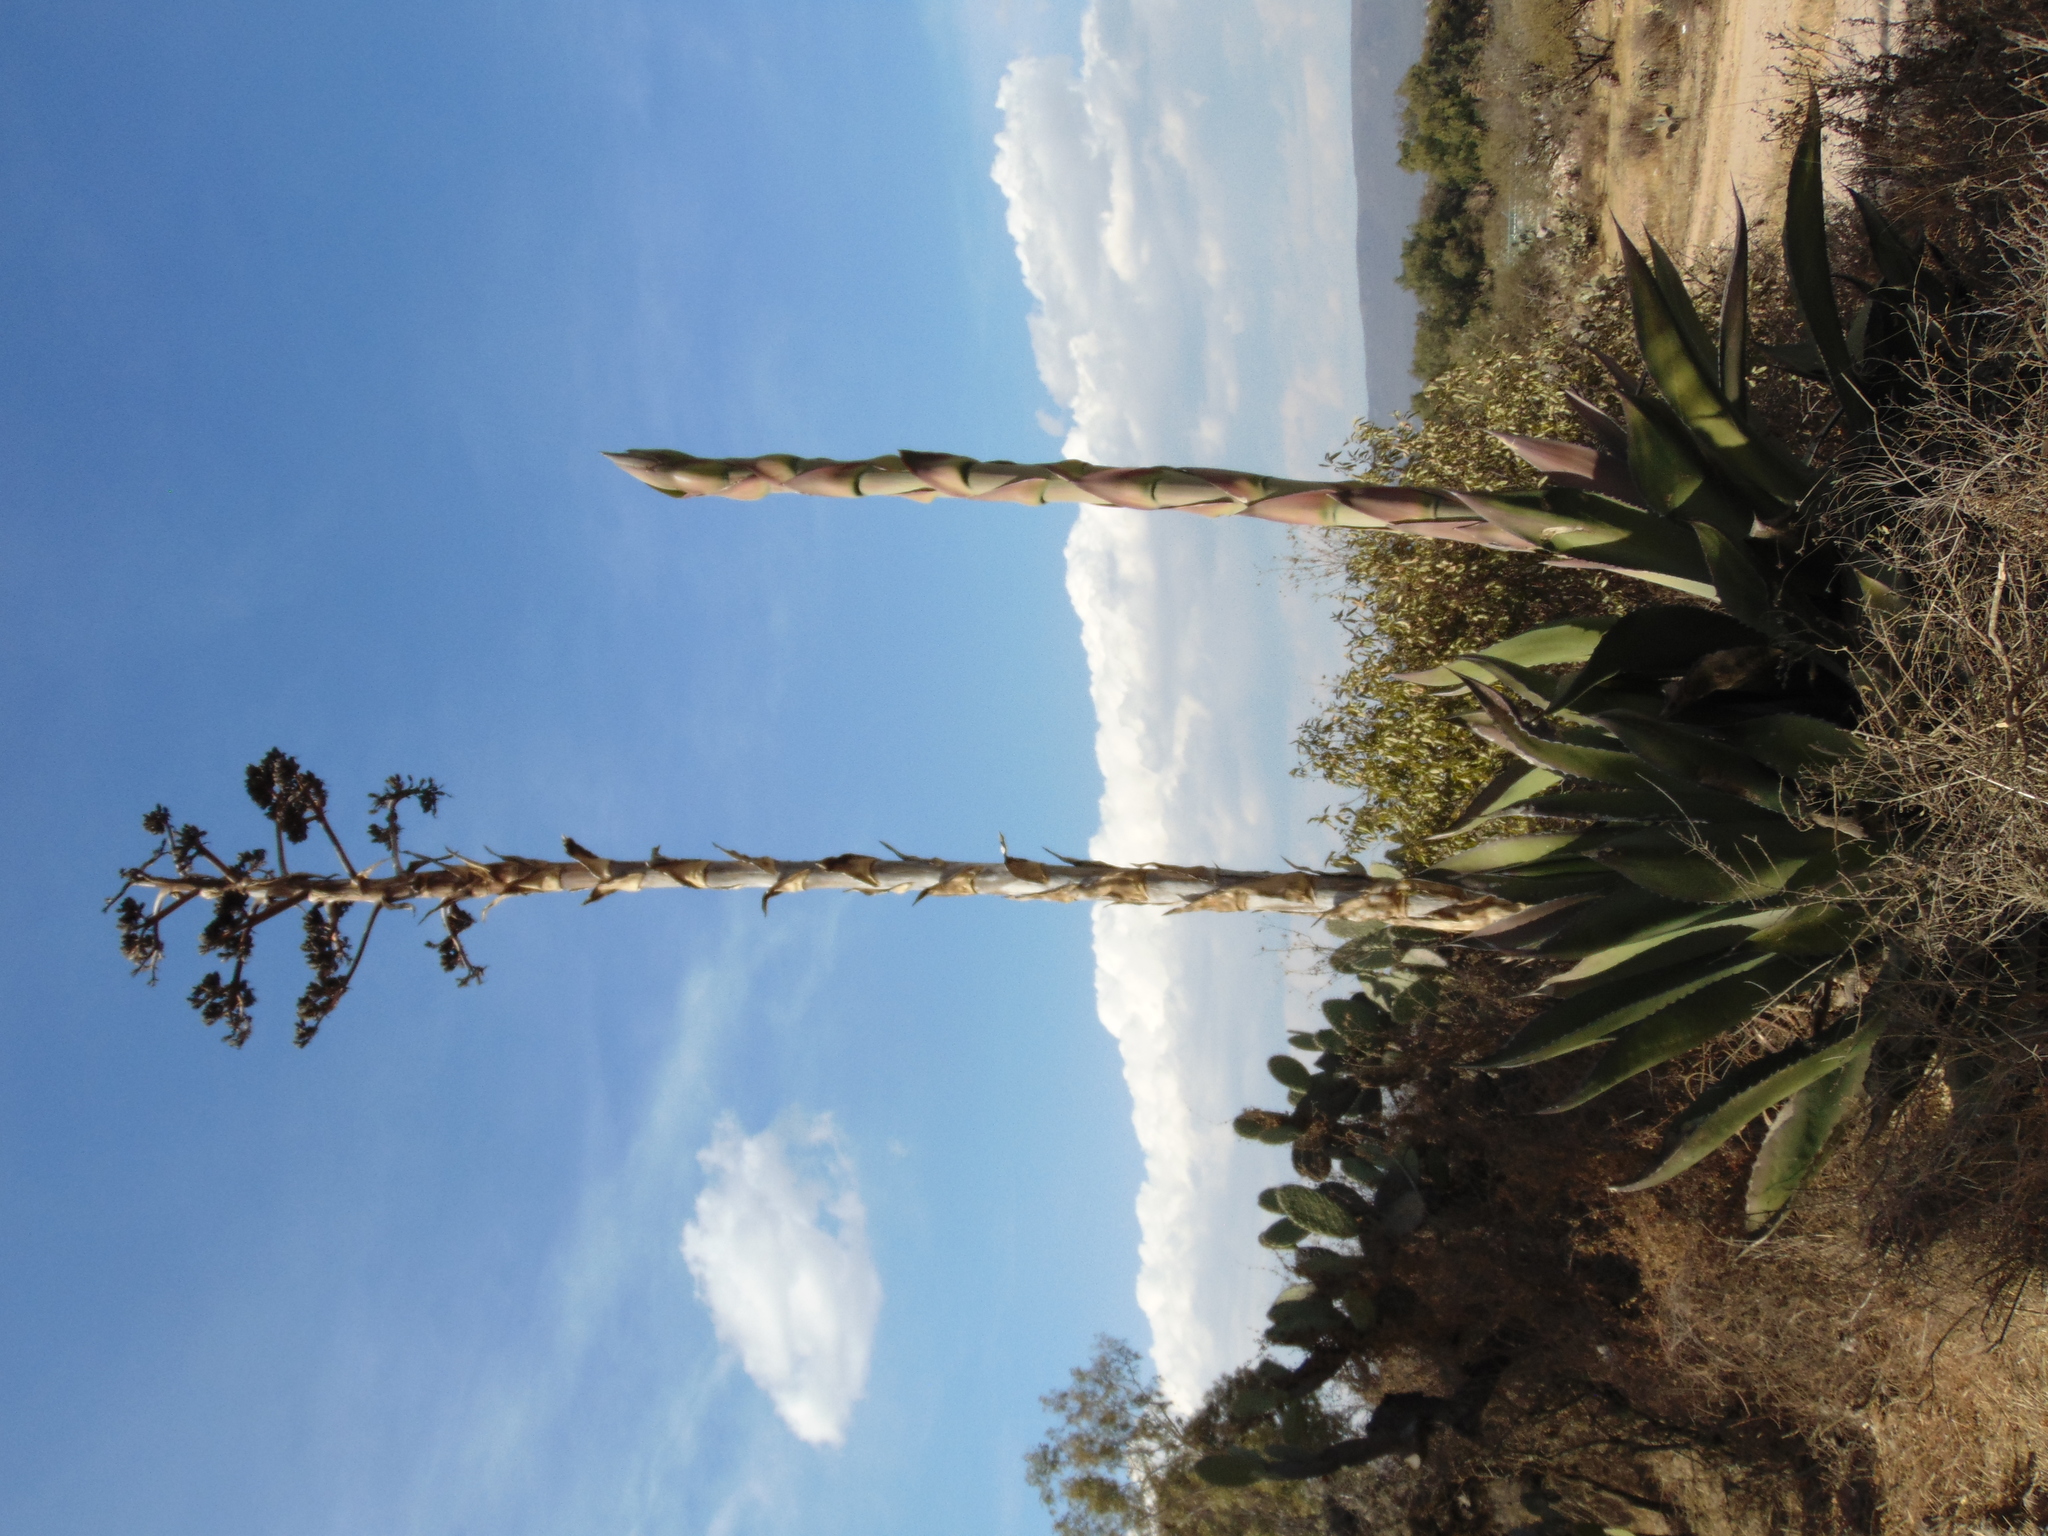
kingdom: Plantae
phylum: Tracheophyta
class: Liliopsida
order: Asparagales
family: Asparagaceae
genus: Agave
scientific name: Agave salmiana
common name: Pulque agave
